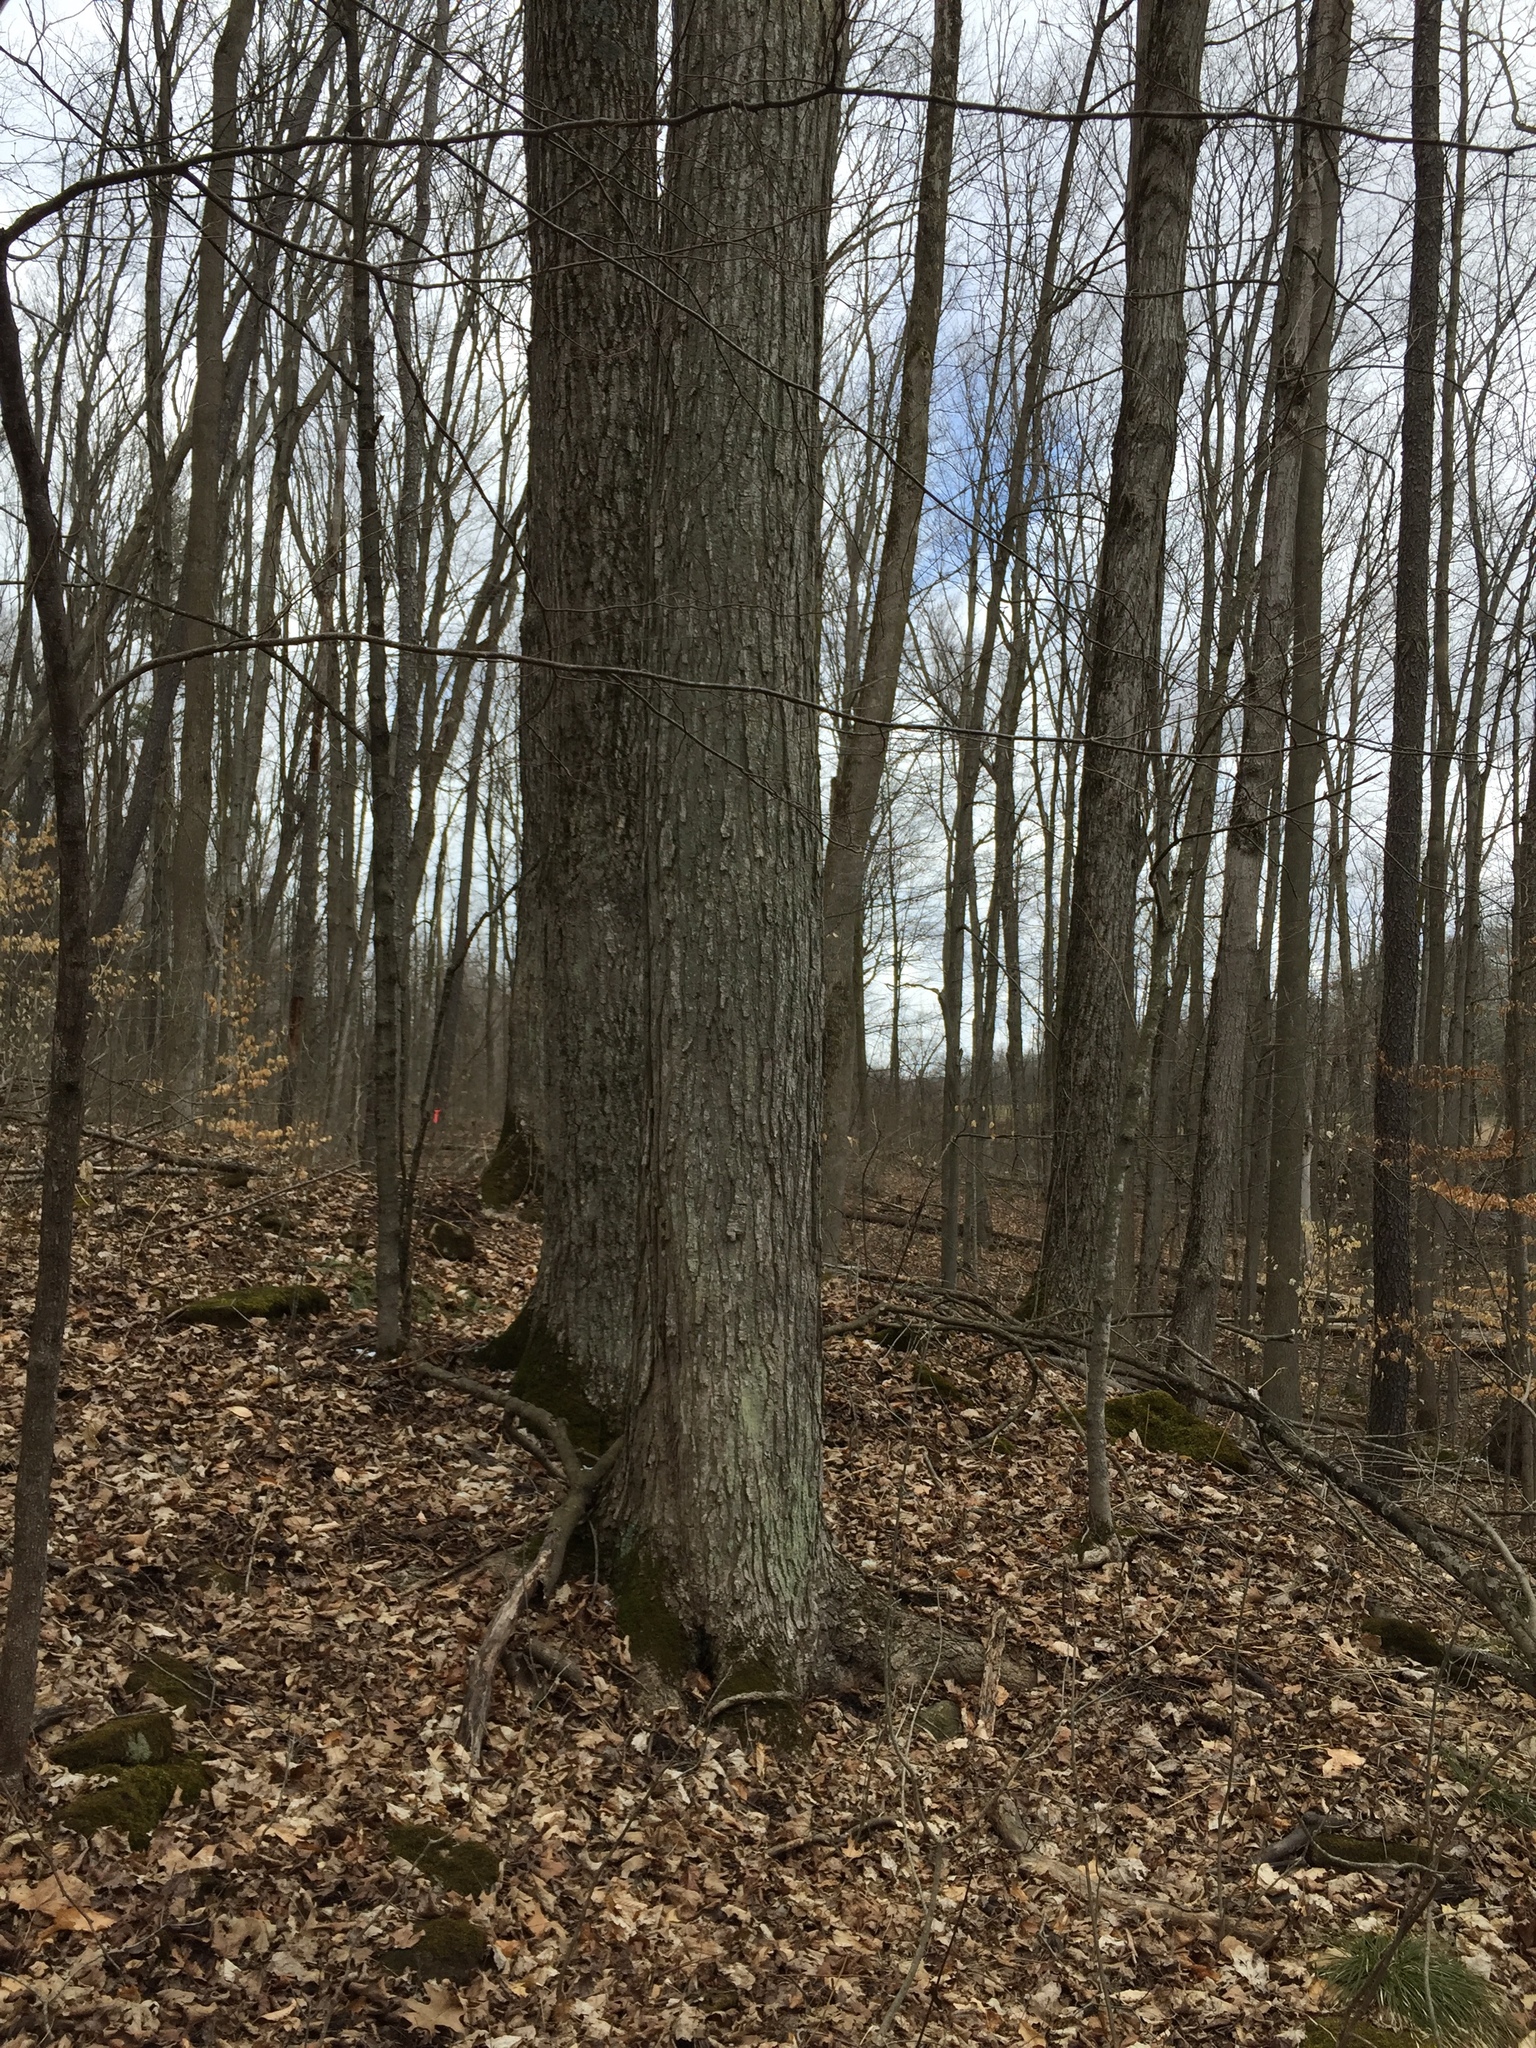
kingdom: Plantae
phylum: Tracheophyta
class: Magnoliopsida
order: Sapindales
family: Sapindaceae
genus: Acer
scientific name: Acer saccharum
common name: Sugar maple
